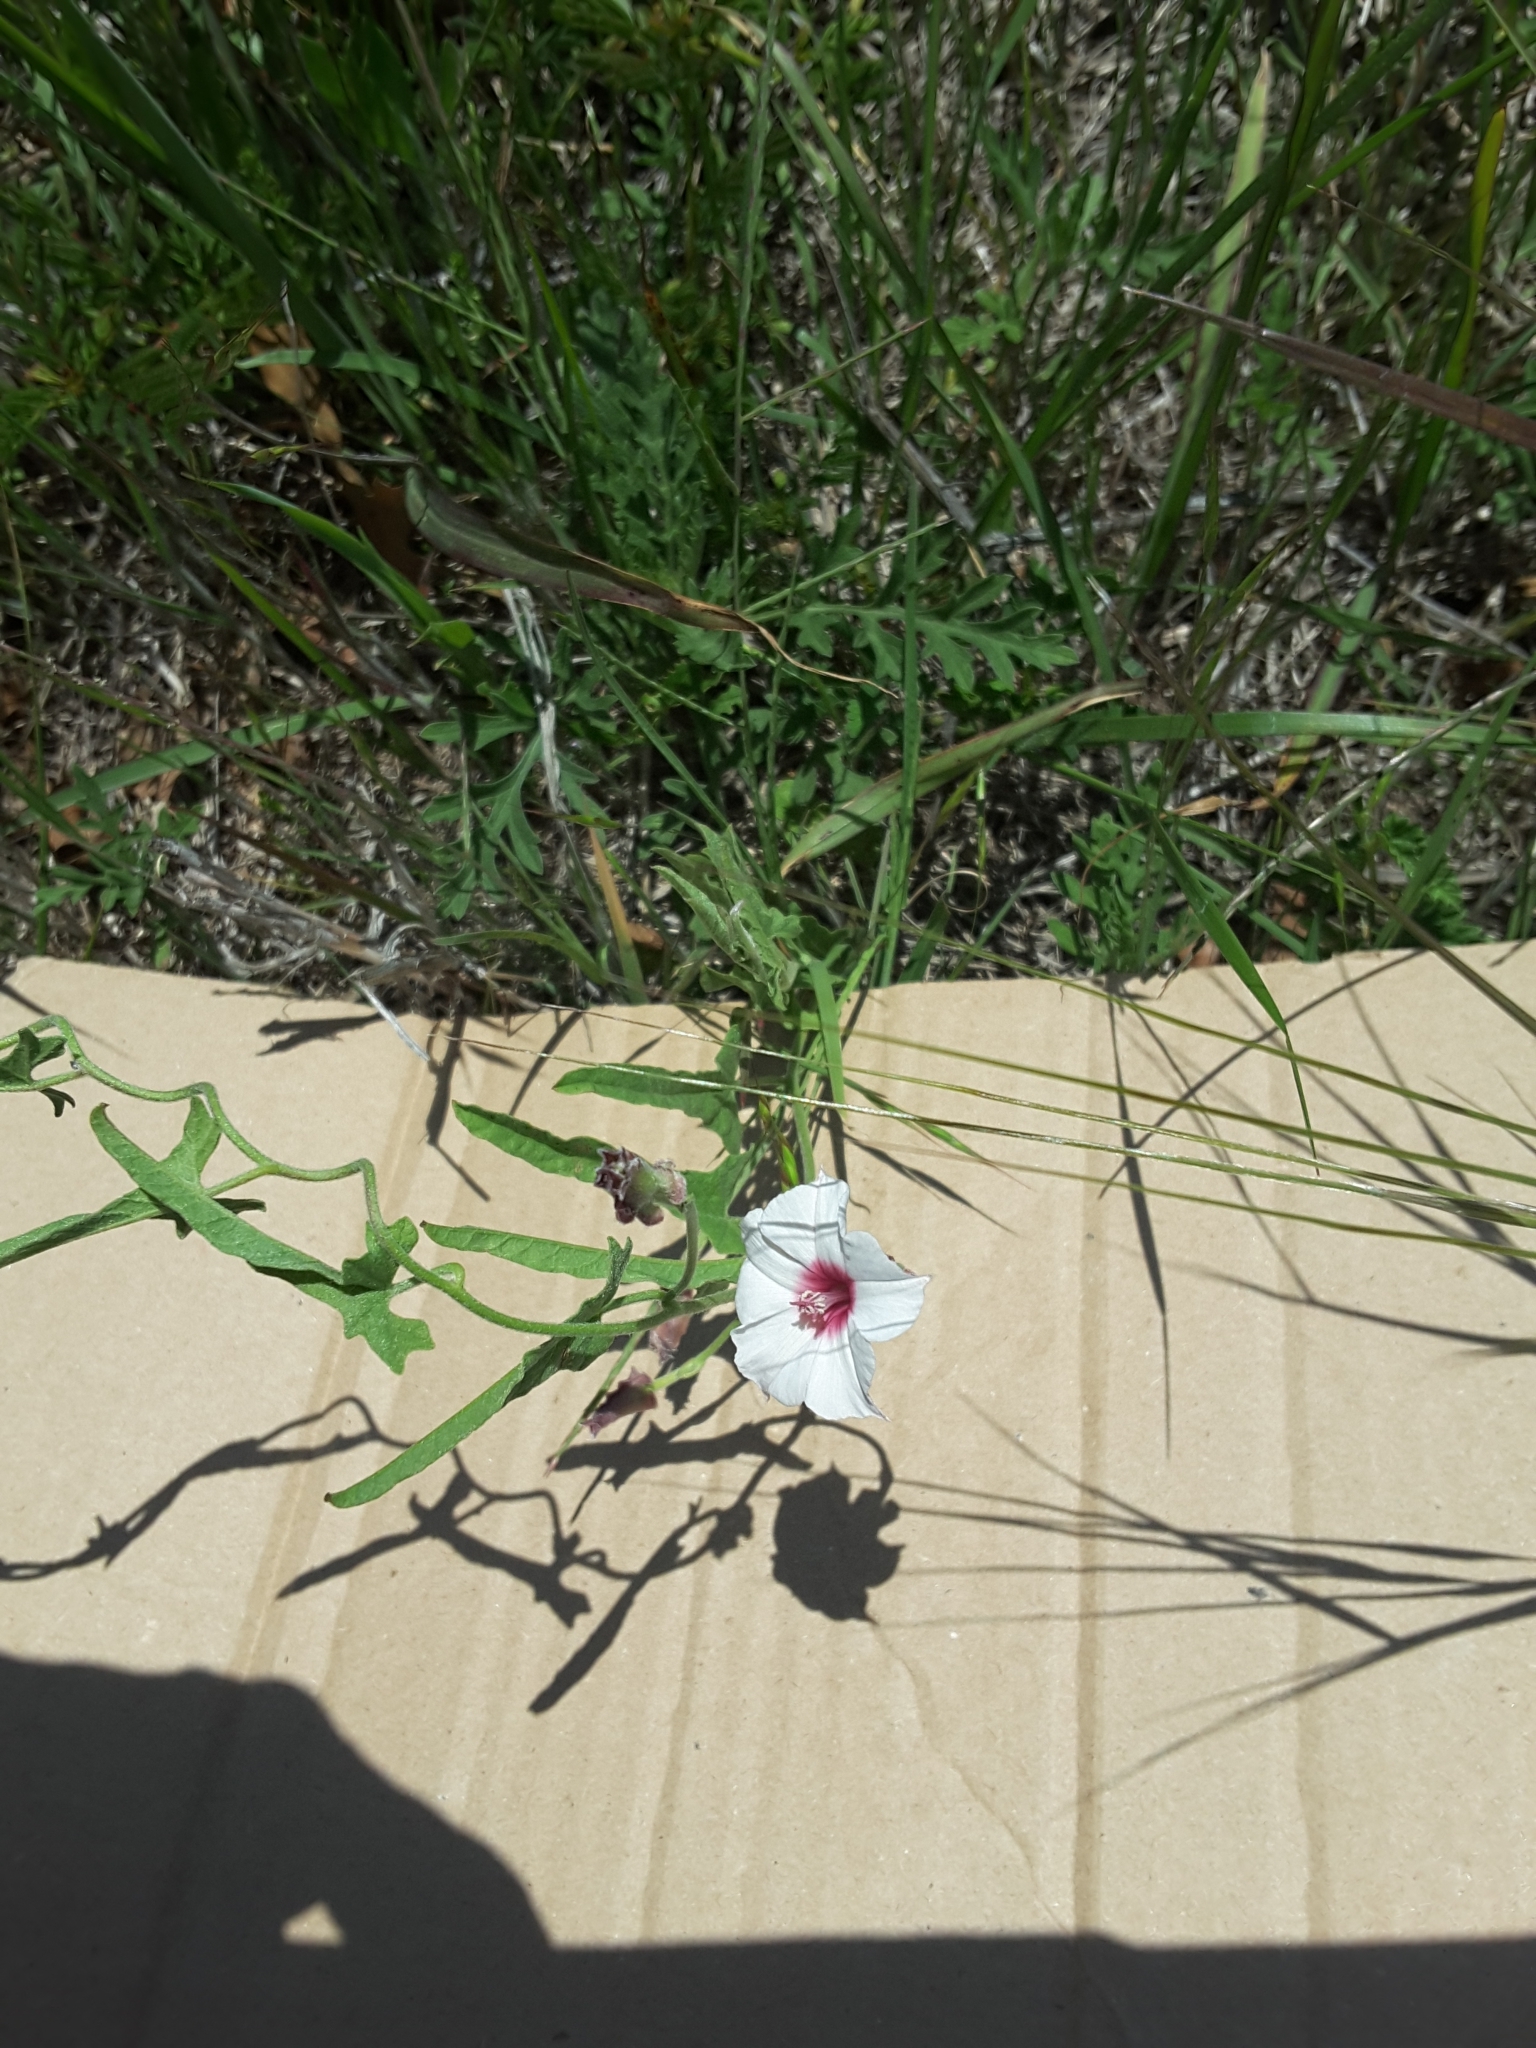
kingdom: Plantae
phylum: Tracheophyta
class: Magnoliopsida
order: Solanales
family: Convolvulaceae
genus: Convolvulus
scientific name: Convolvulus arvensis
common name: Field bindweed
